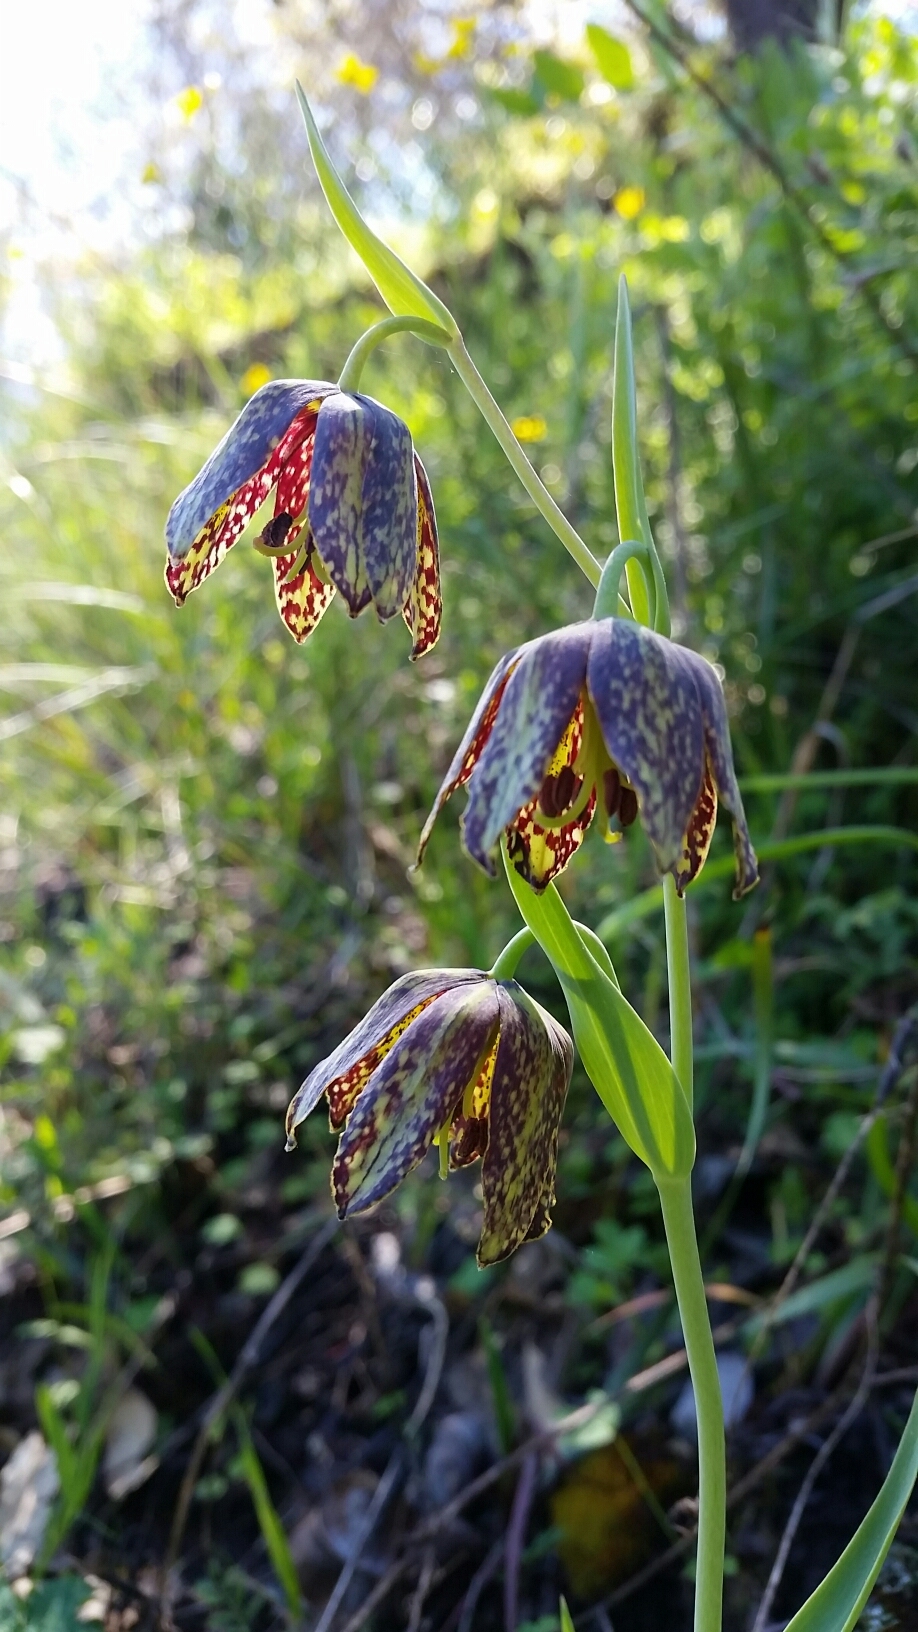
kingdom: Plantae
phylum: Tracheophyta
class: Liliopsida
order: Liliales
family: Liliaceae
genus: Fritillaria
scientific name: Fritillaria affinis
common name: Ojai fritillary
